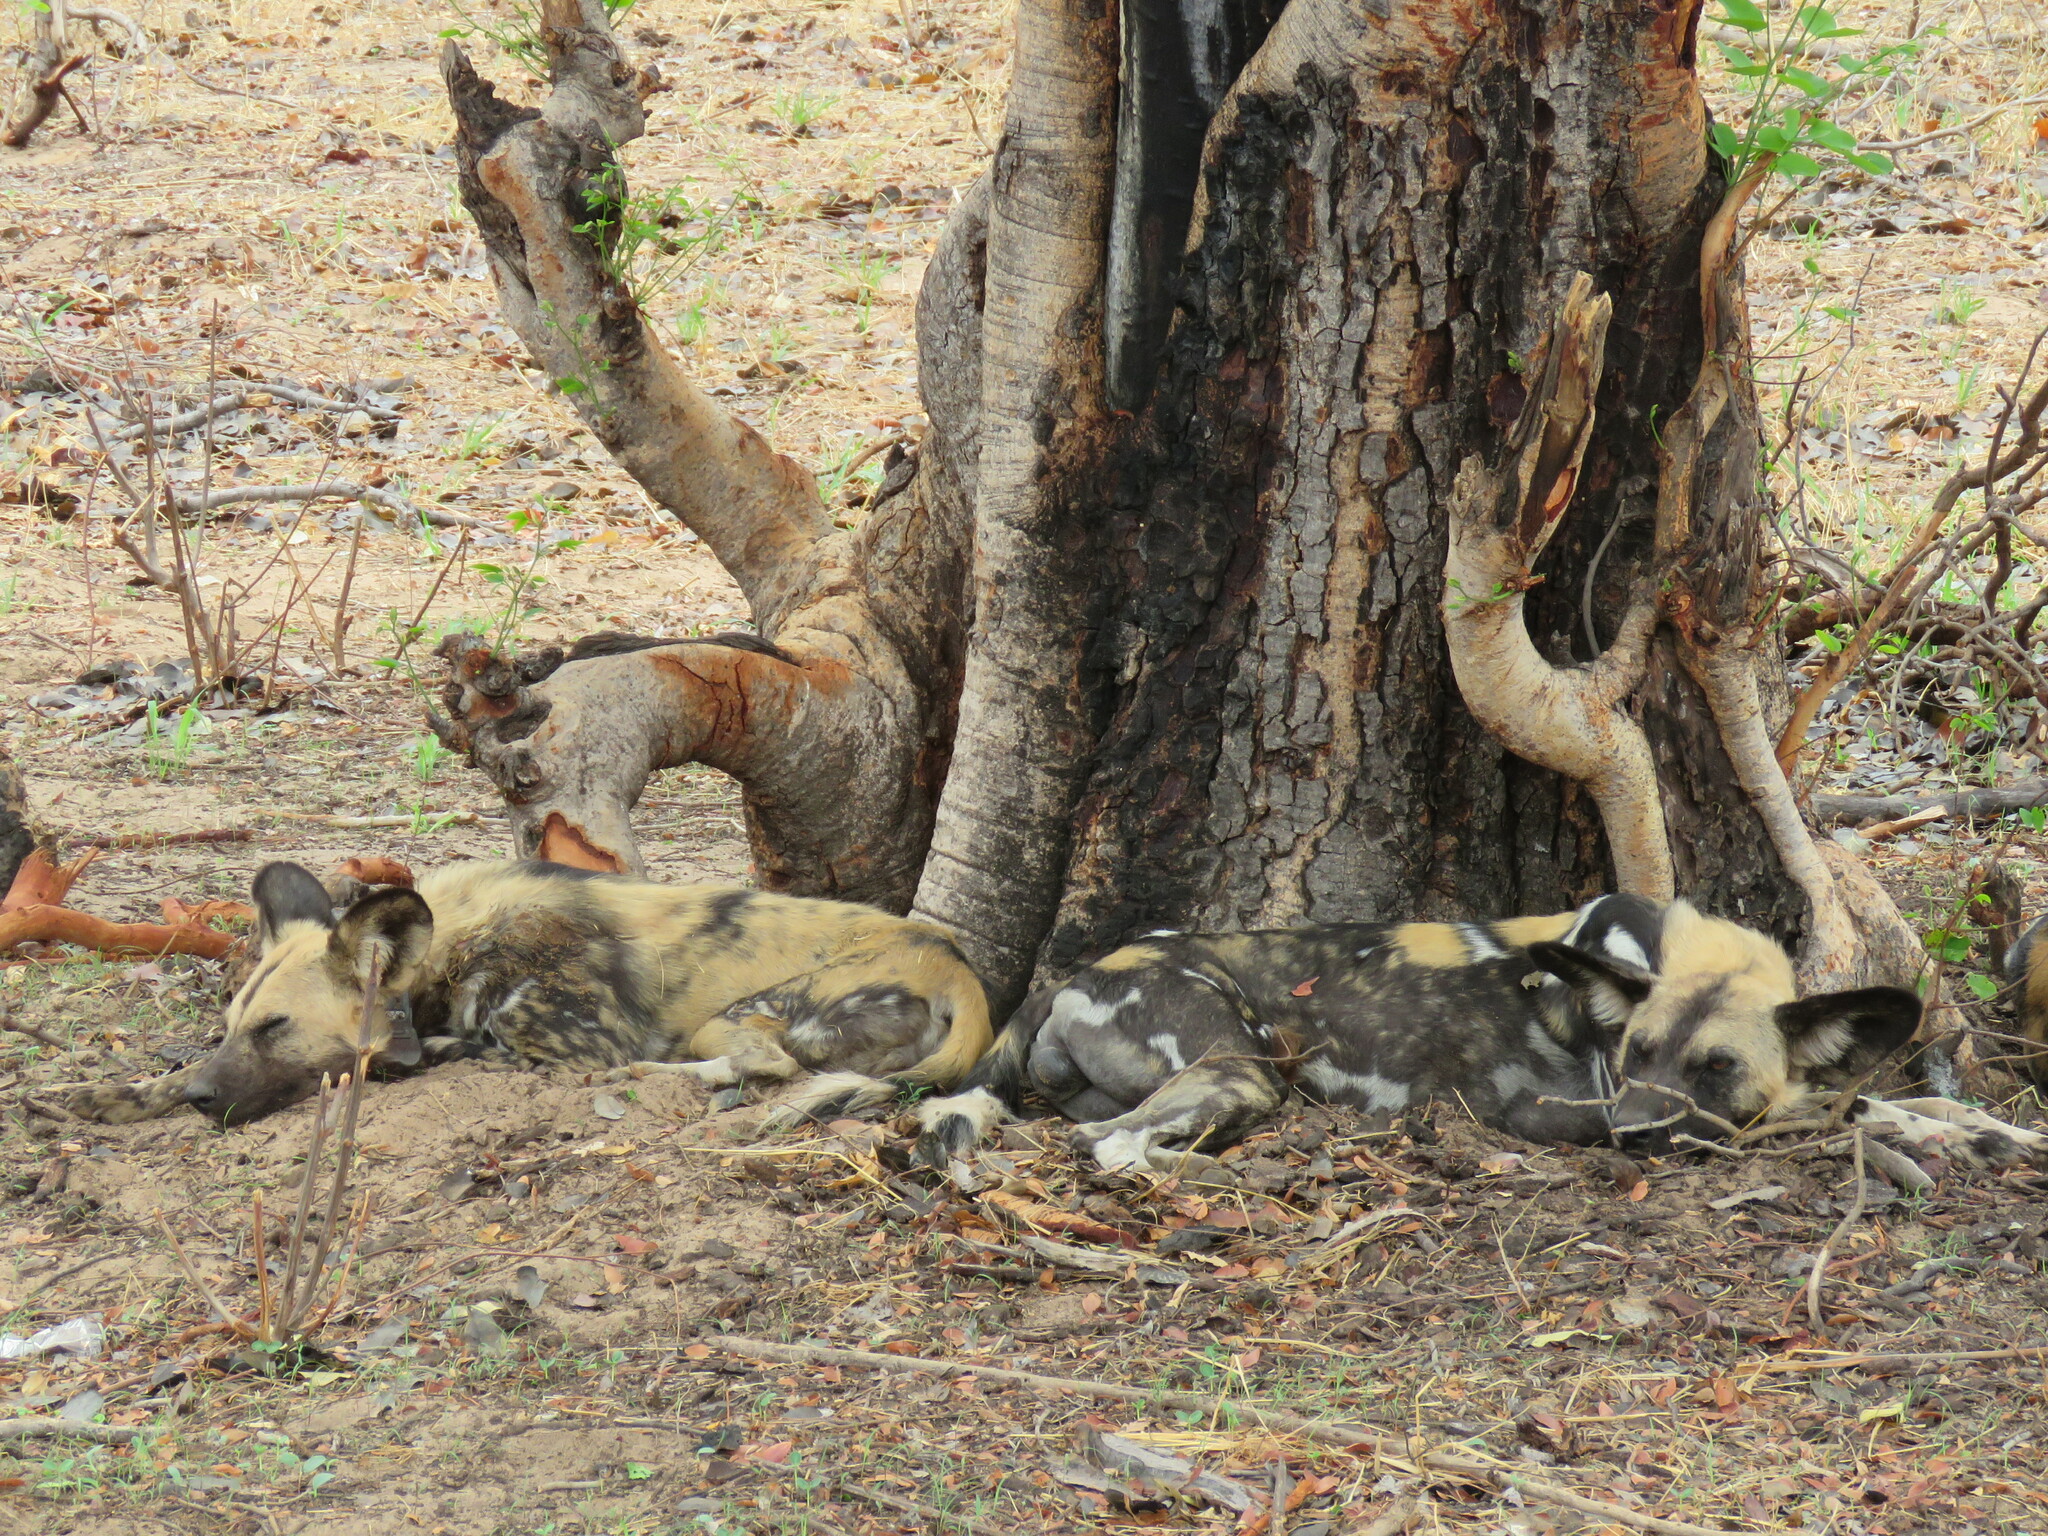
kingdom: Animalia
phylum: Chordata
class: Mammalia
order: Carnivora
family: Canidae
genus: Lycaon
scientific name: Lycaon pictus
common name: African wild dog
